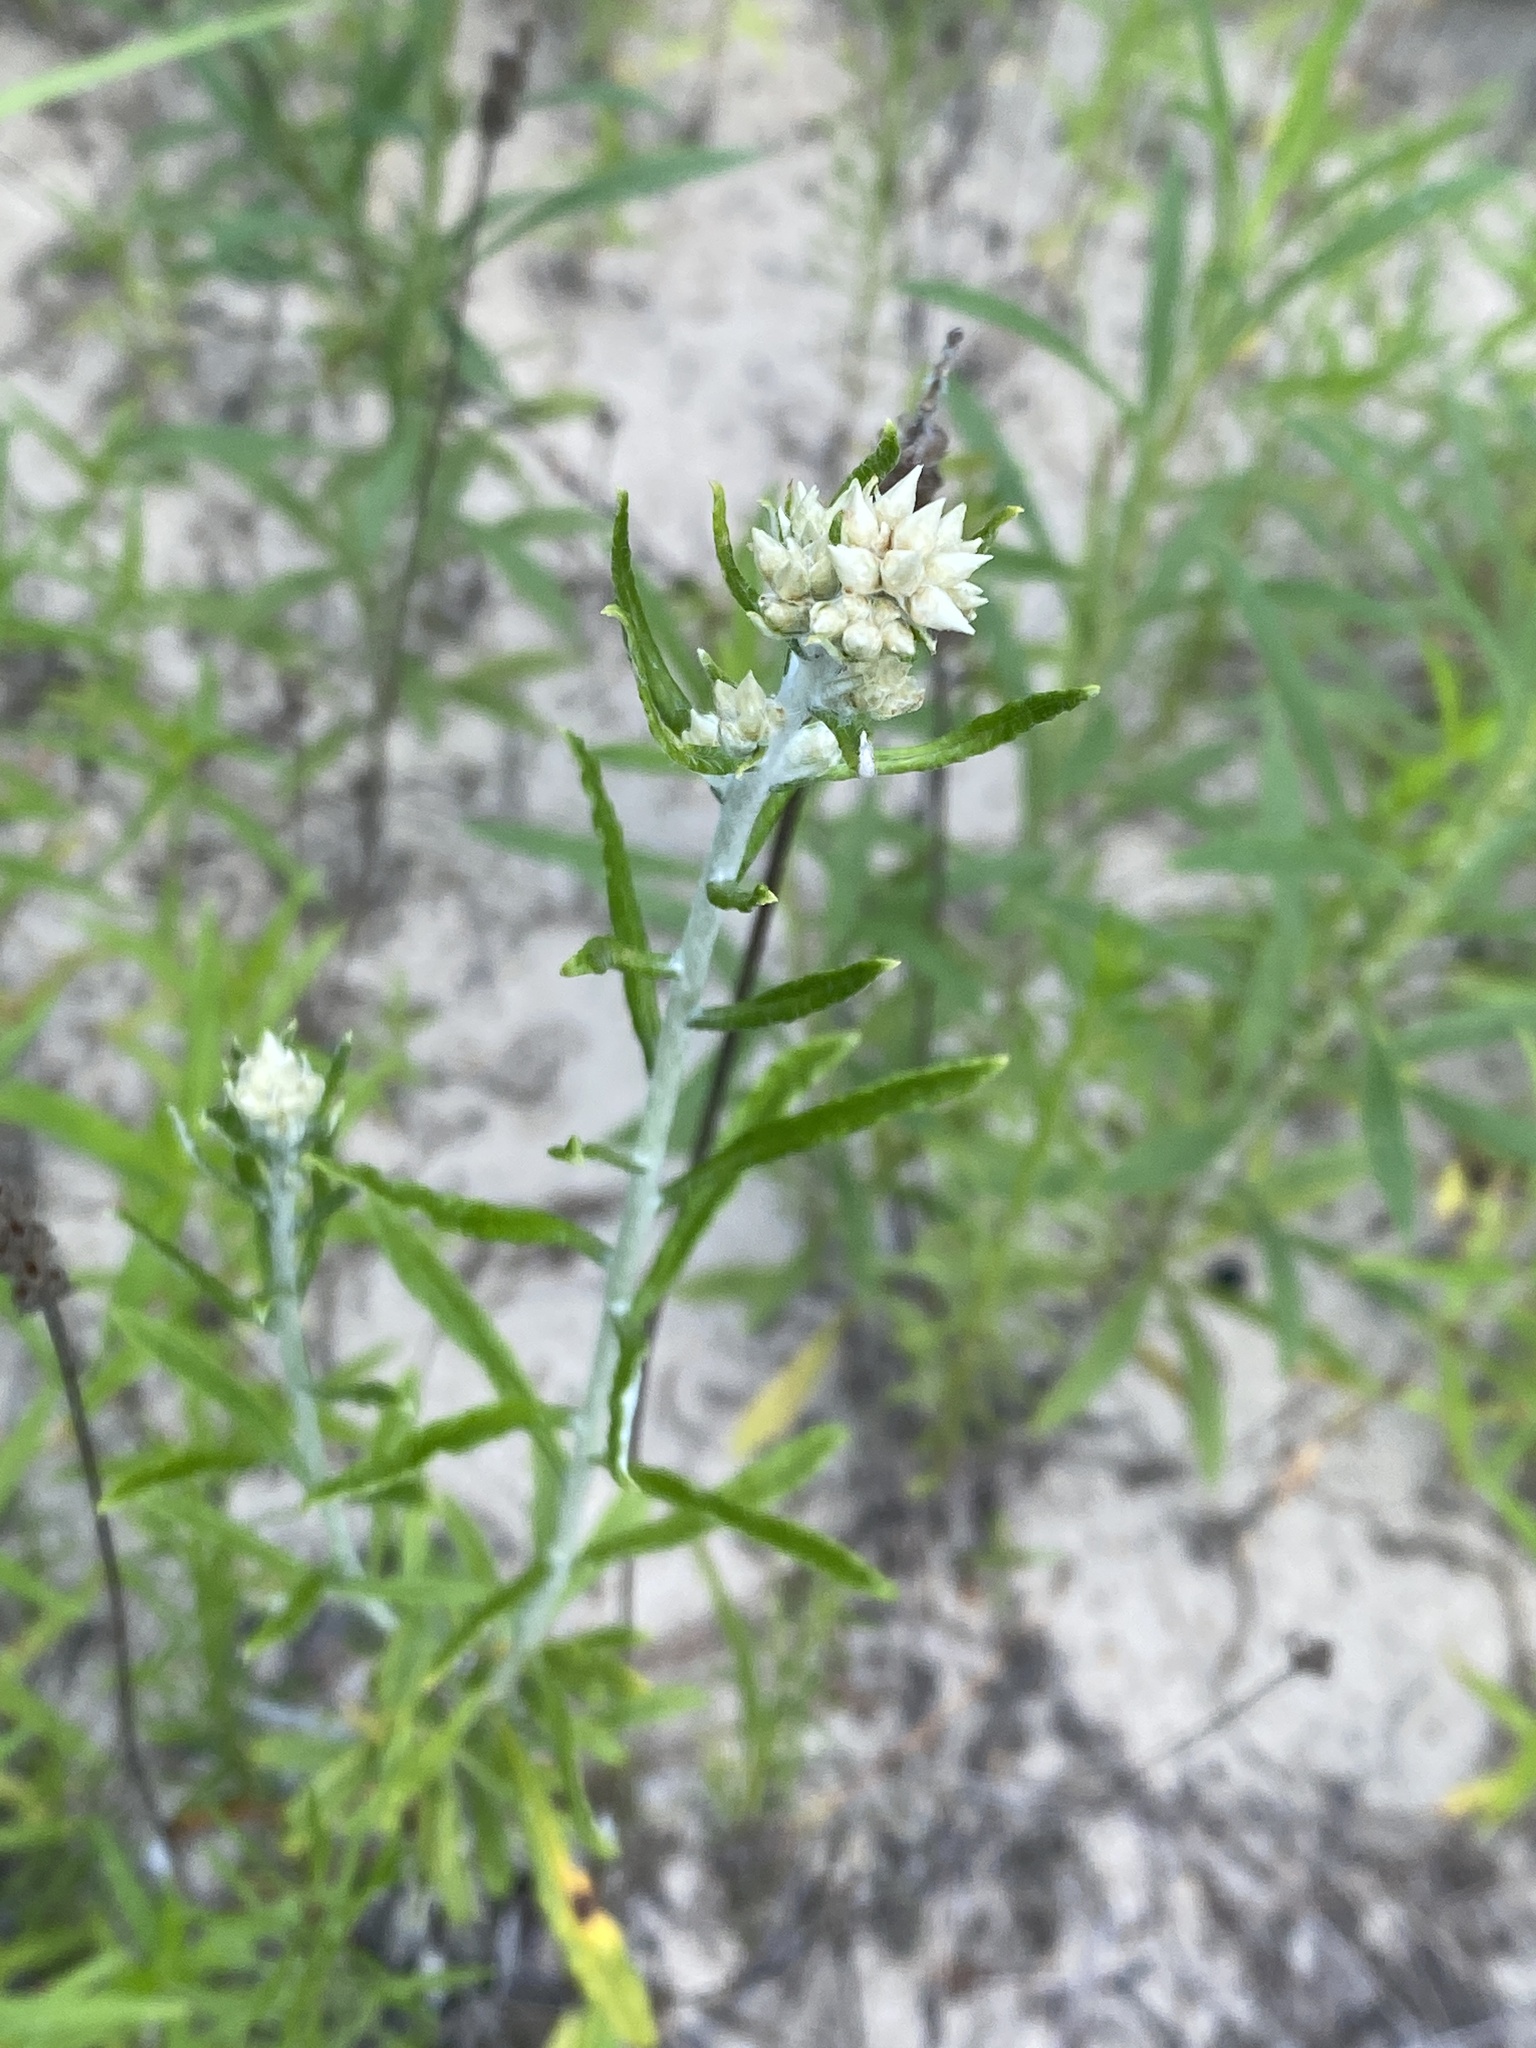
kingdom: Plantae
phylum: Tracheophyta
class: Magnoliopsida
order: Asterales
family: Asteraceae
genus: Pseudognaphalium
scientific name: Pseudognaphalium obtusifolium
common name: Eastern rabbit-tobacco
